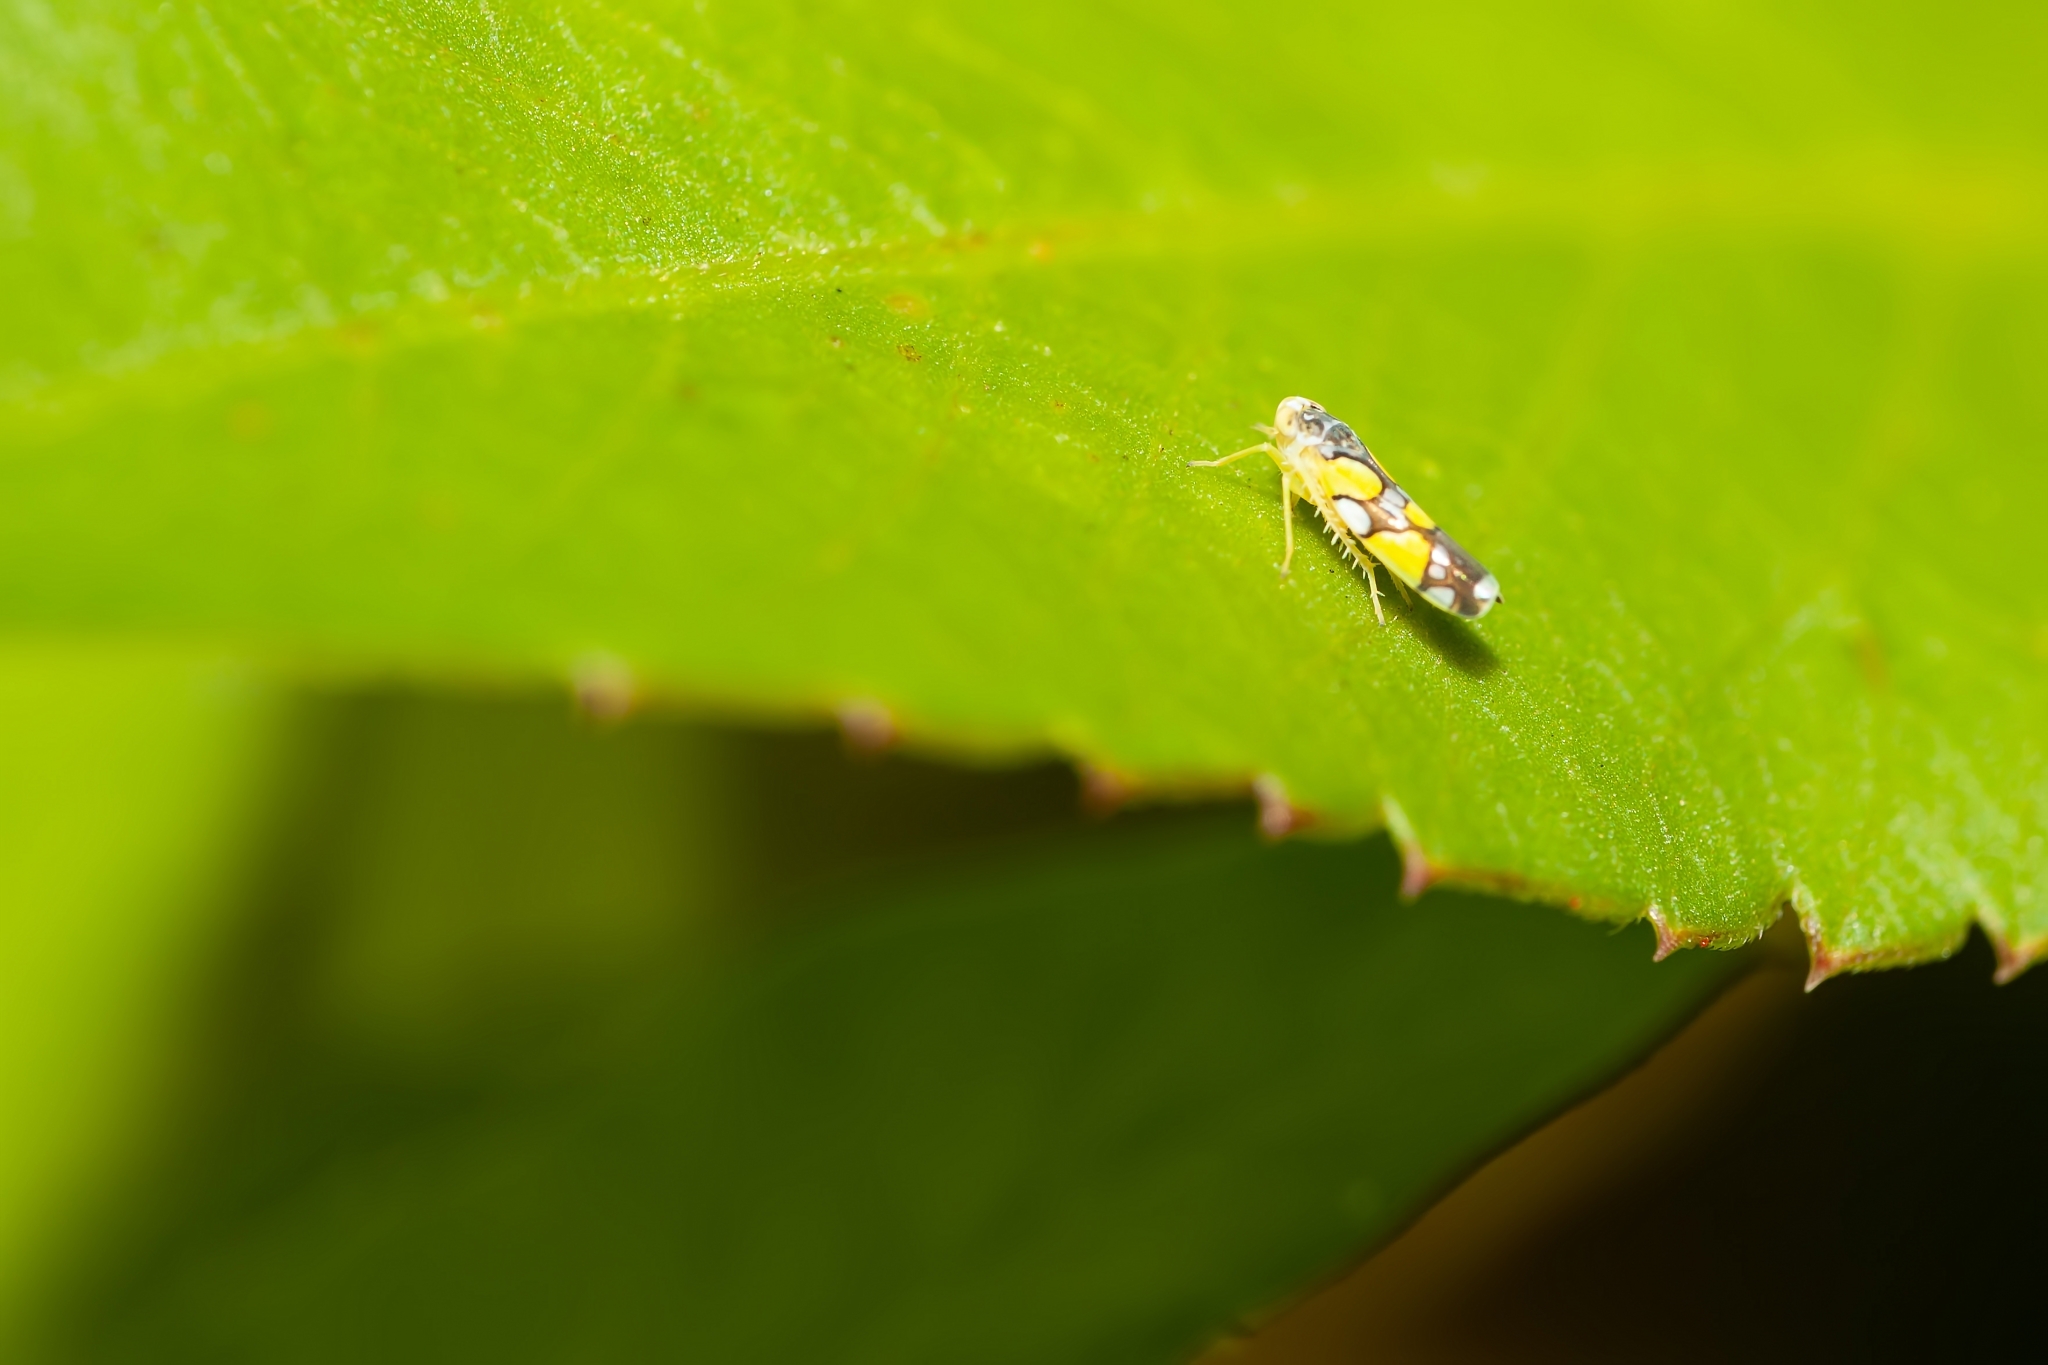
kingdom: Animalia
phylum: Arthropoda
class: Insecta
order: Hemiptera
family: Cicadellidae
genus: Protalebrella
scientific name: Protalebrella brasiliensis
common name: Brasilian leafhopper
